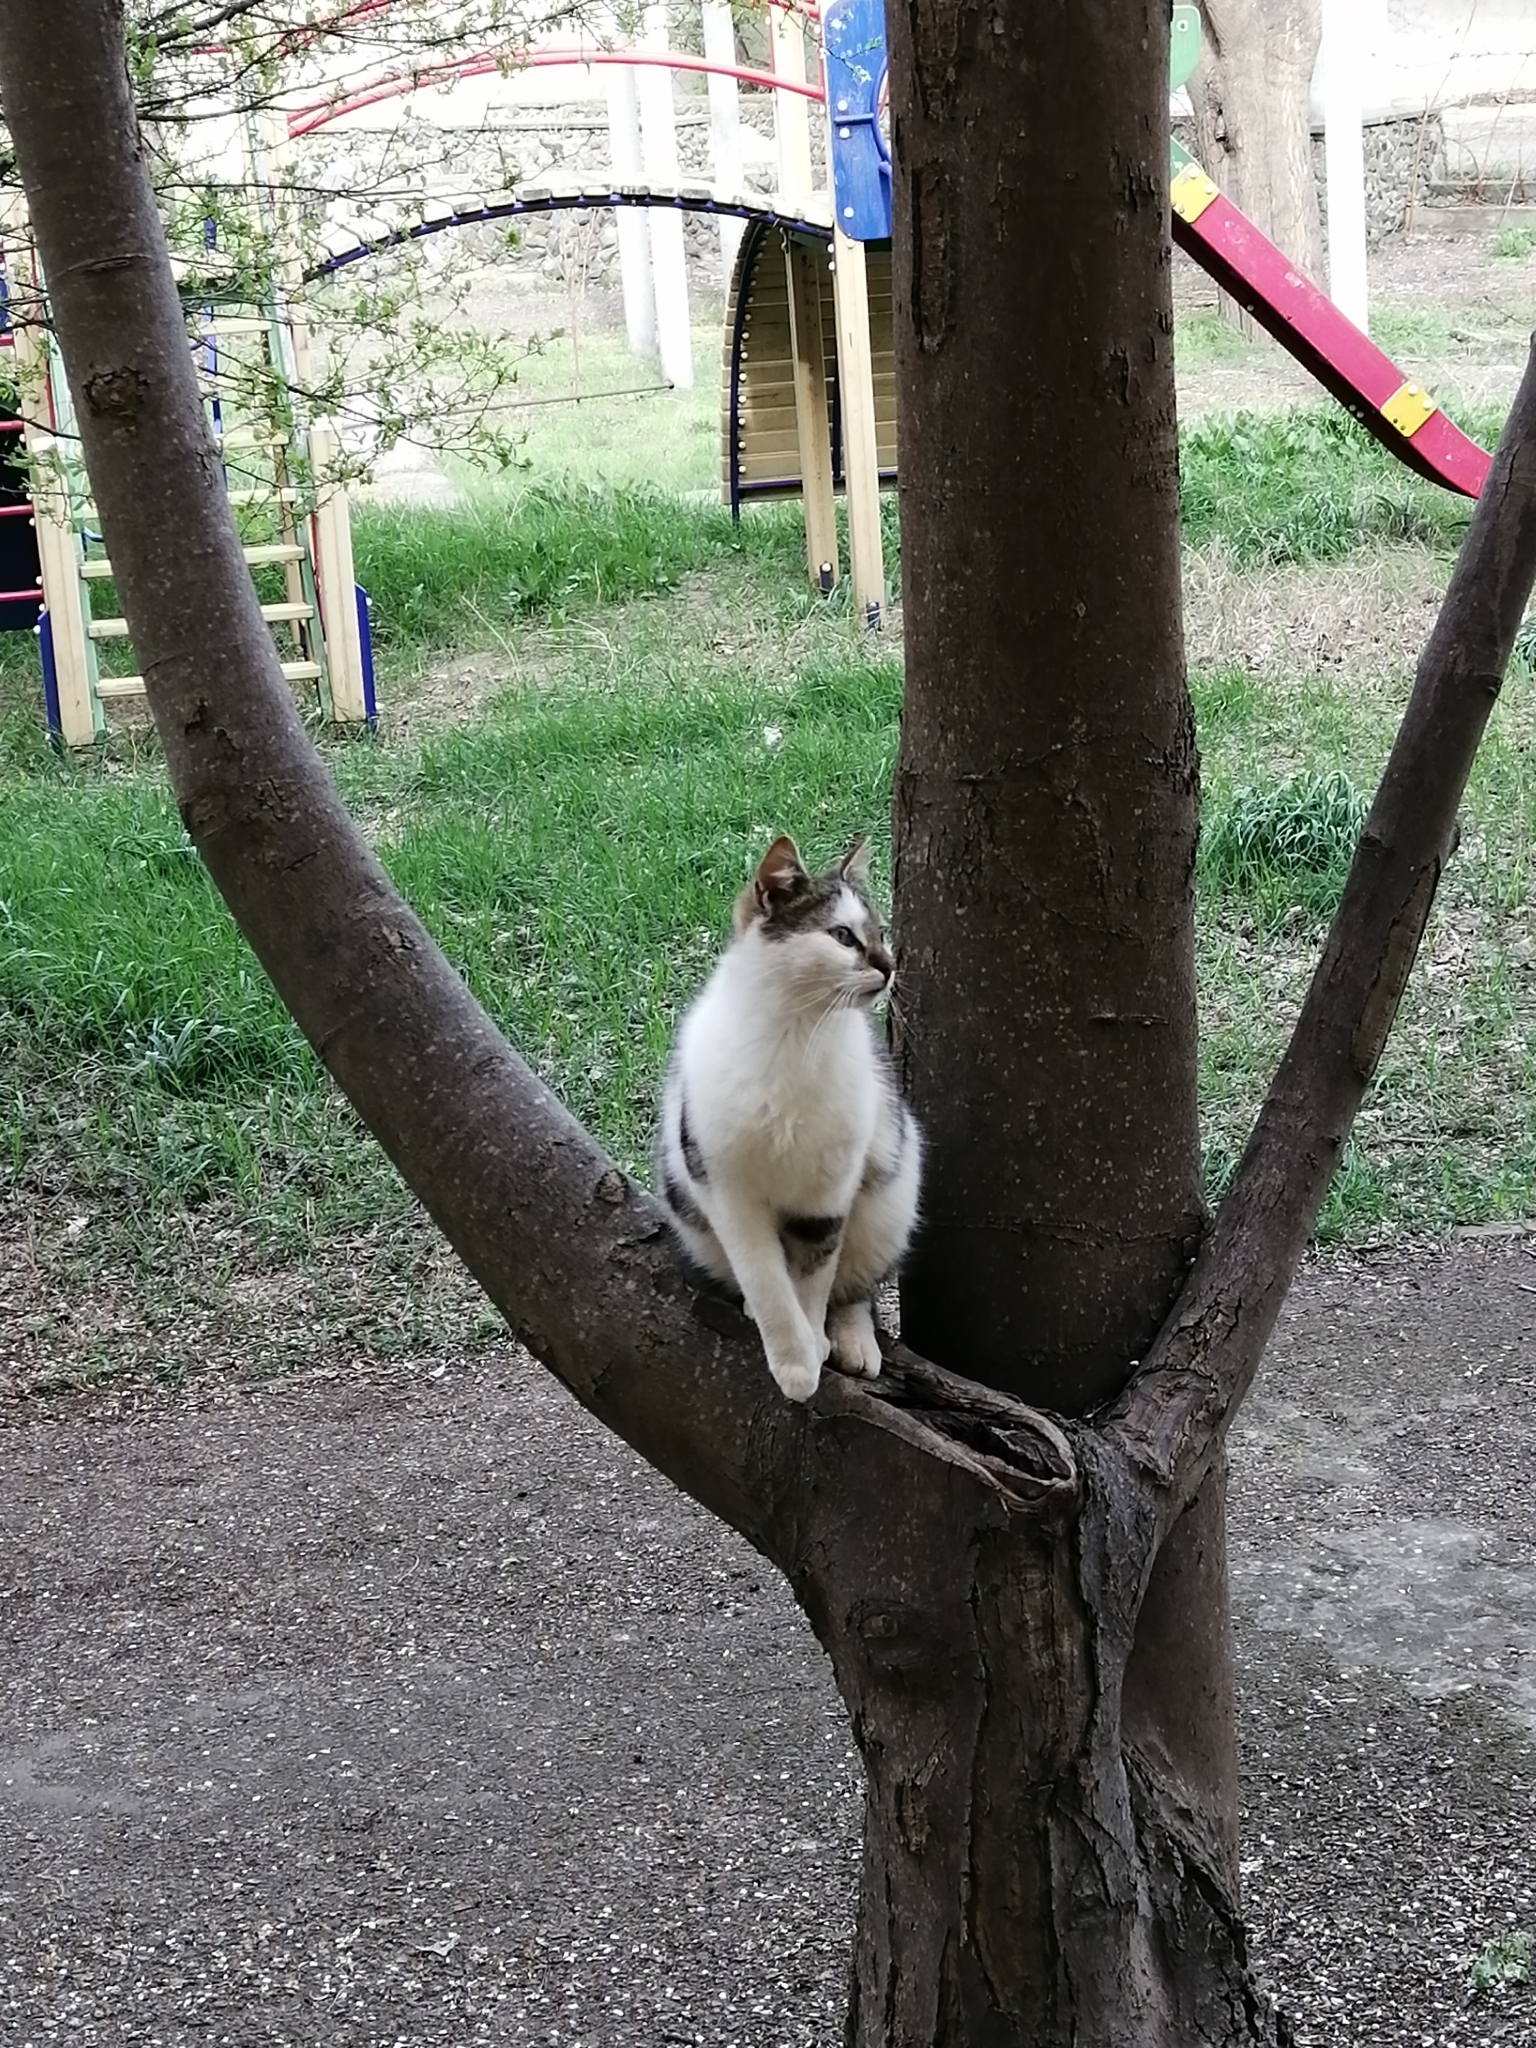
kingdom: Animalia
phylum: Chordata
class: Mammalia
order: Carnivora
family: Felidae
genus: Felis
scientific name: Felis catus
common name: Domestic cat
